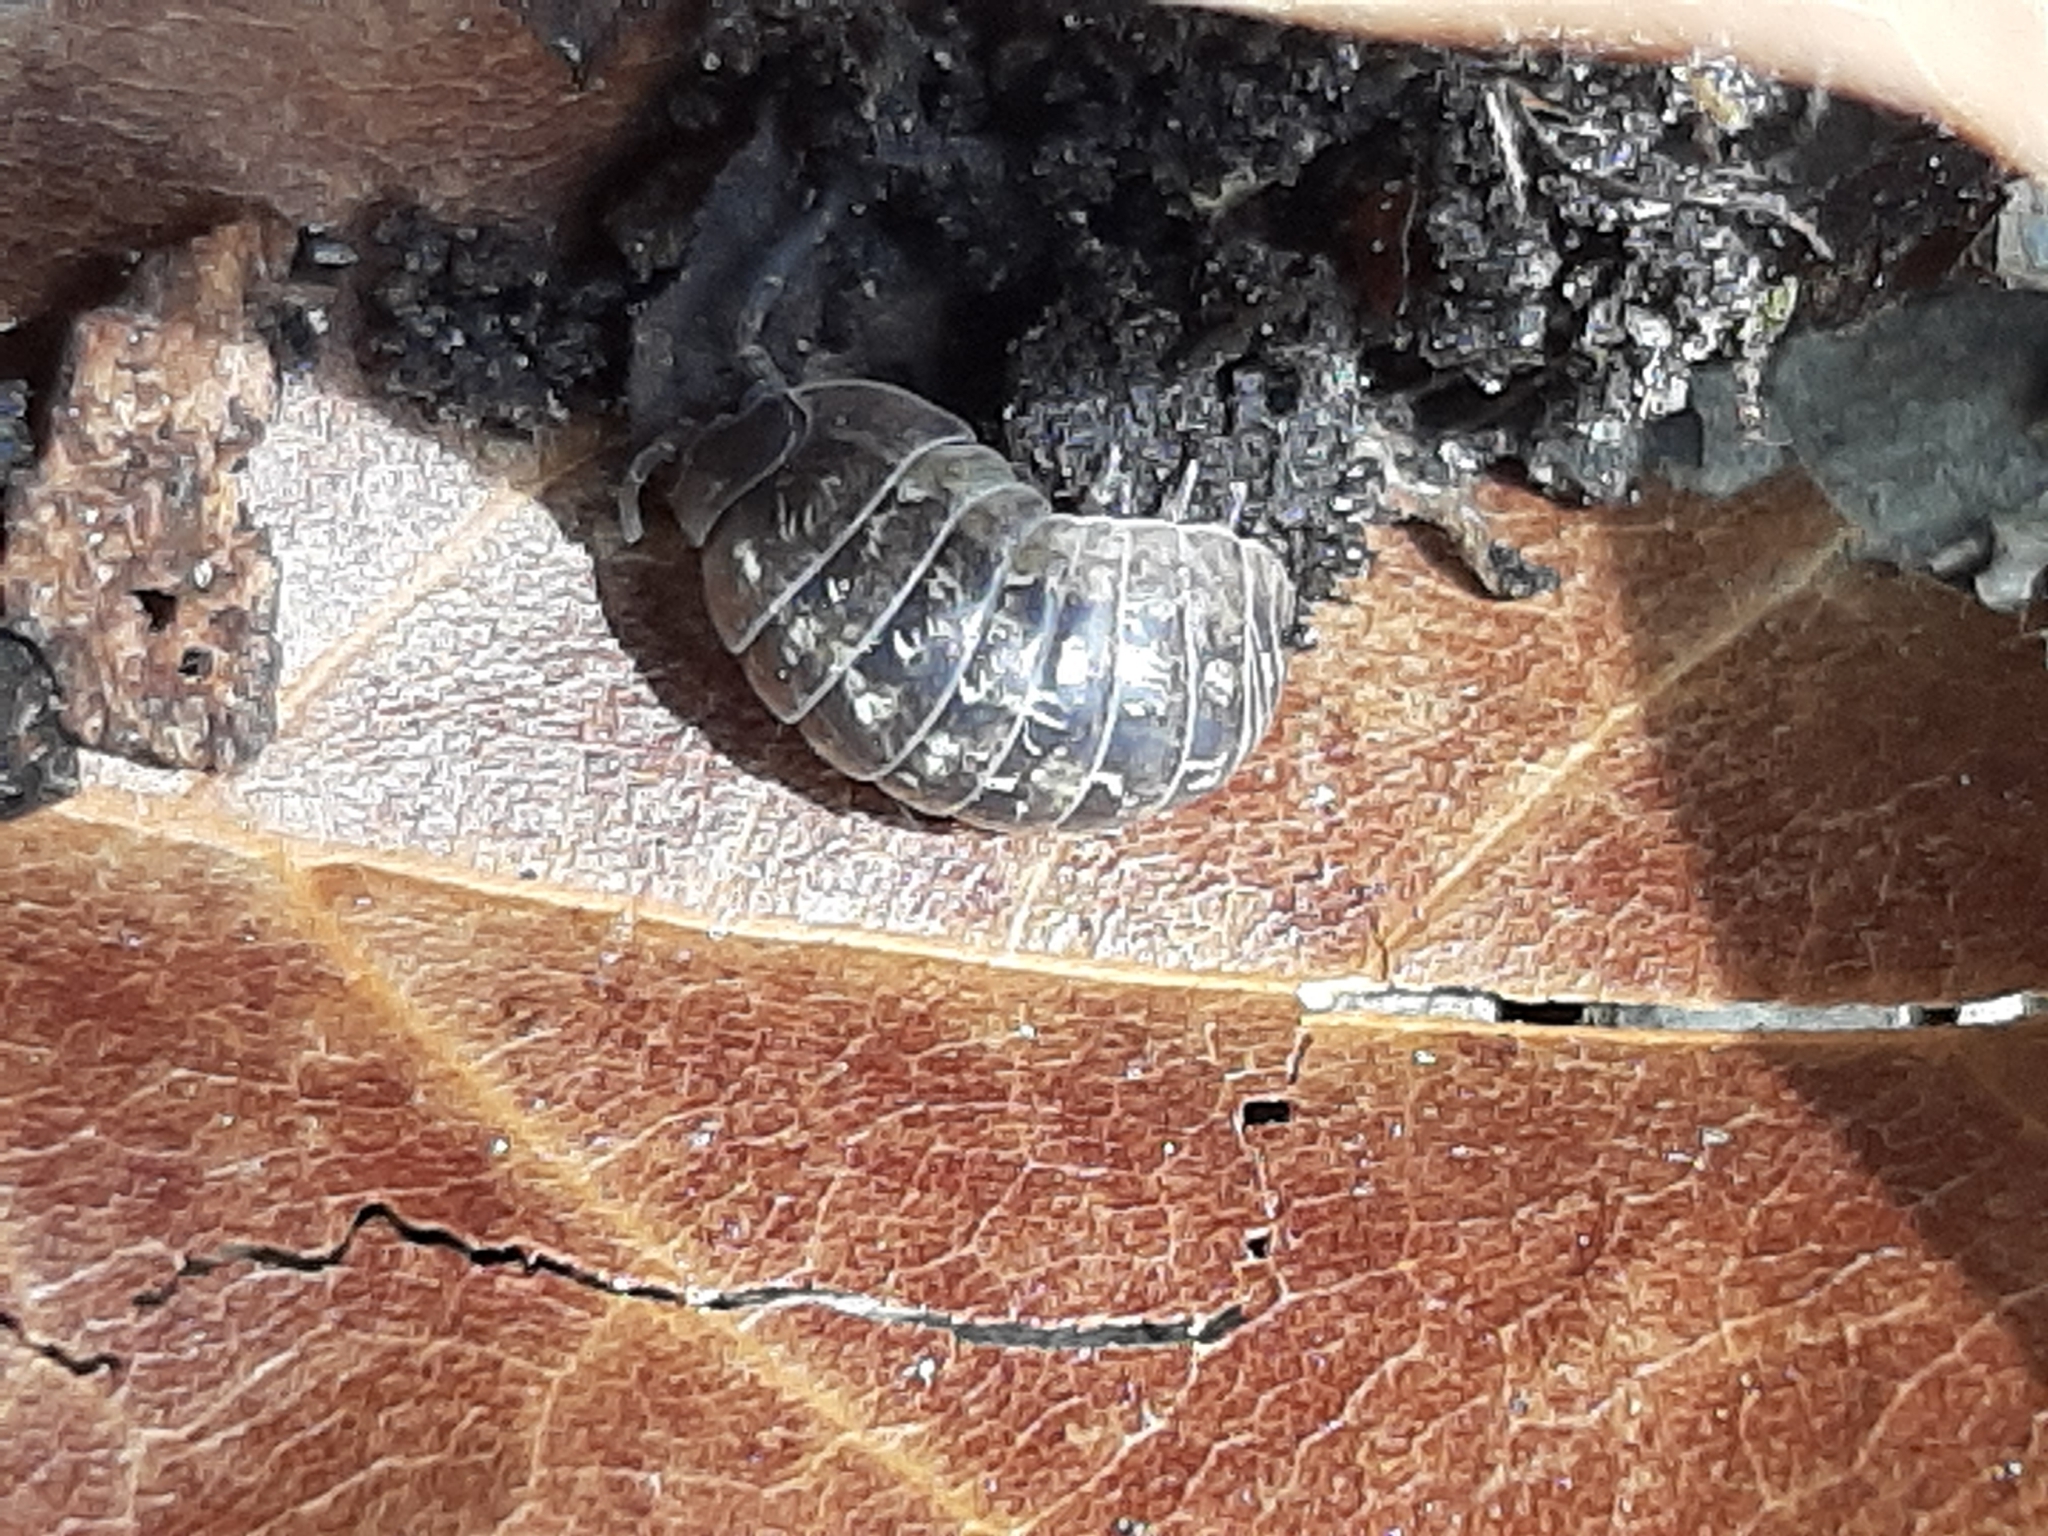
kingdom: Animalia
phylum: Arthropoda
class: Malacostraca
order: Isopoda
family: Armadillidiidae
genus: Armadillidium
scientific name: Armadillidium vulgare
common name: Common pill woodlouse
